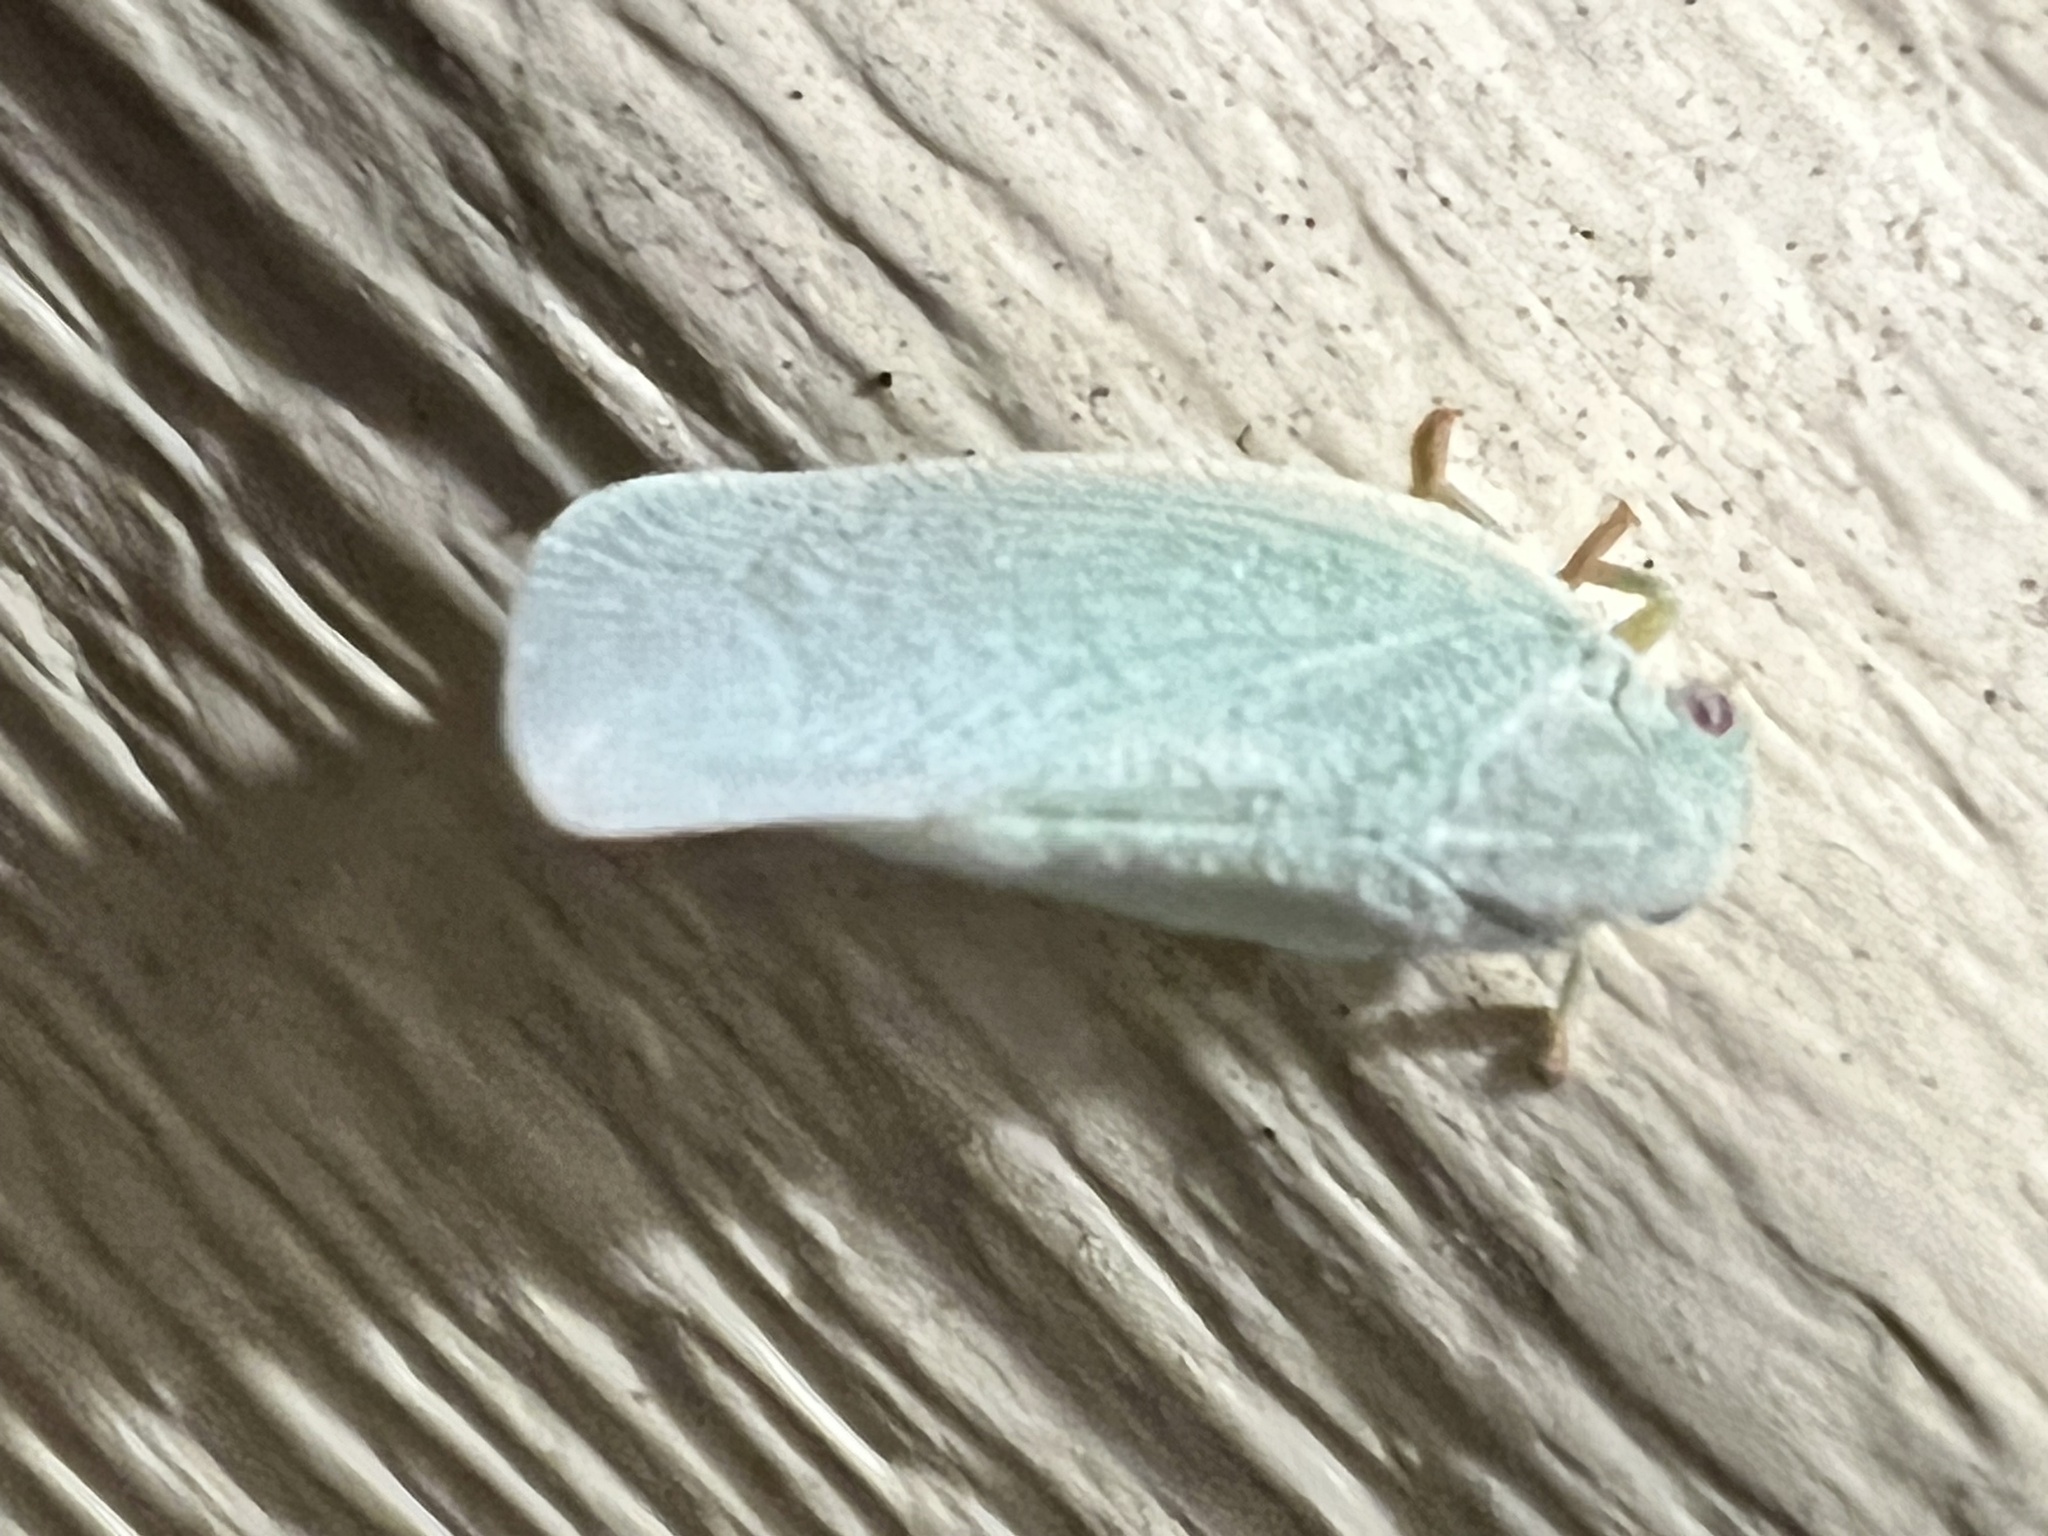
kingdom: Animalia
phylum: Arthropoda
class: Insecta
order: Hemiptera
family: Flatidae
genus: Flatormenis
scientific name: Flatormenis proxima
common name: Northern flatid planthopper
